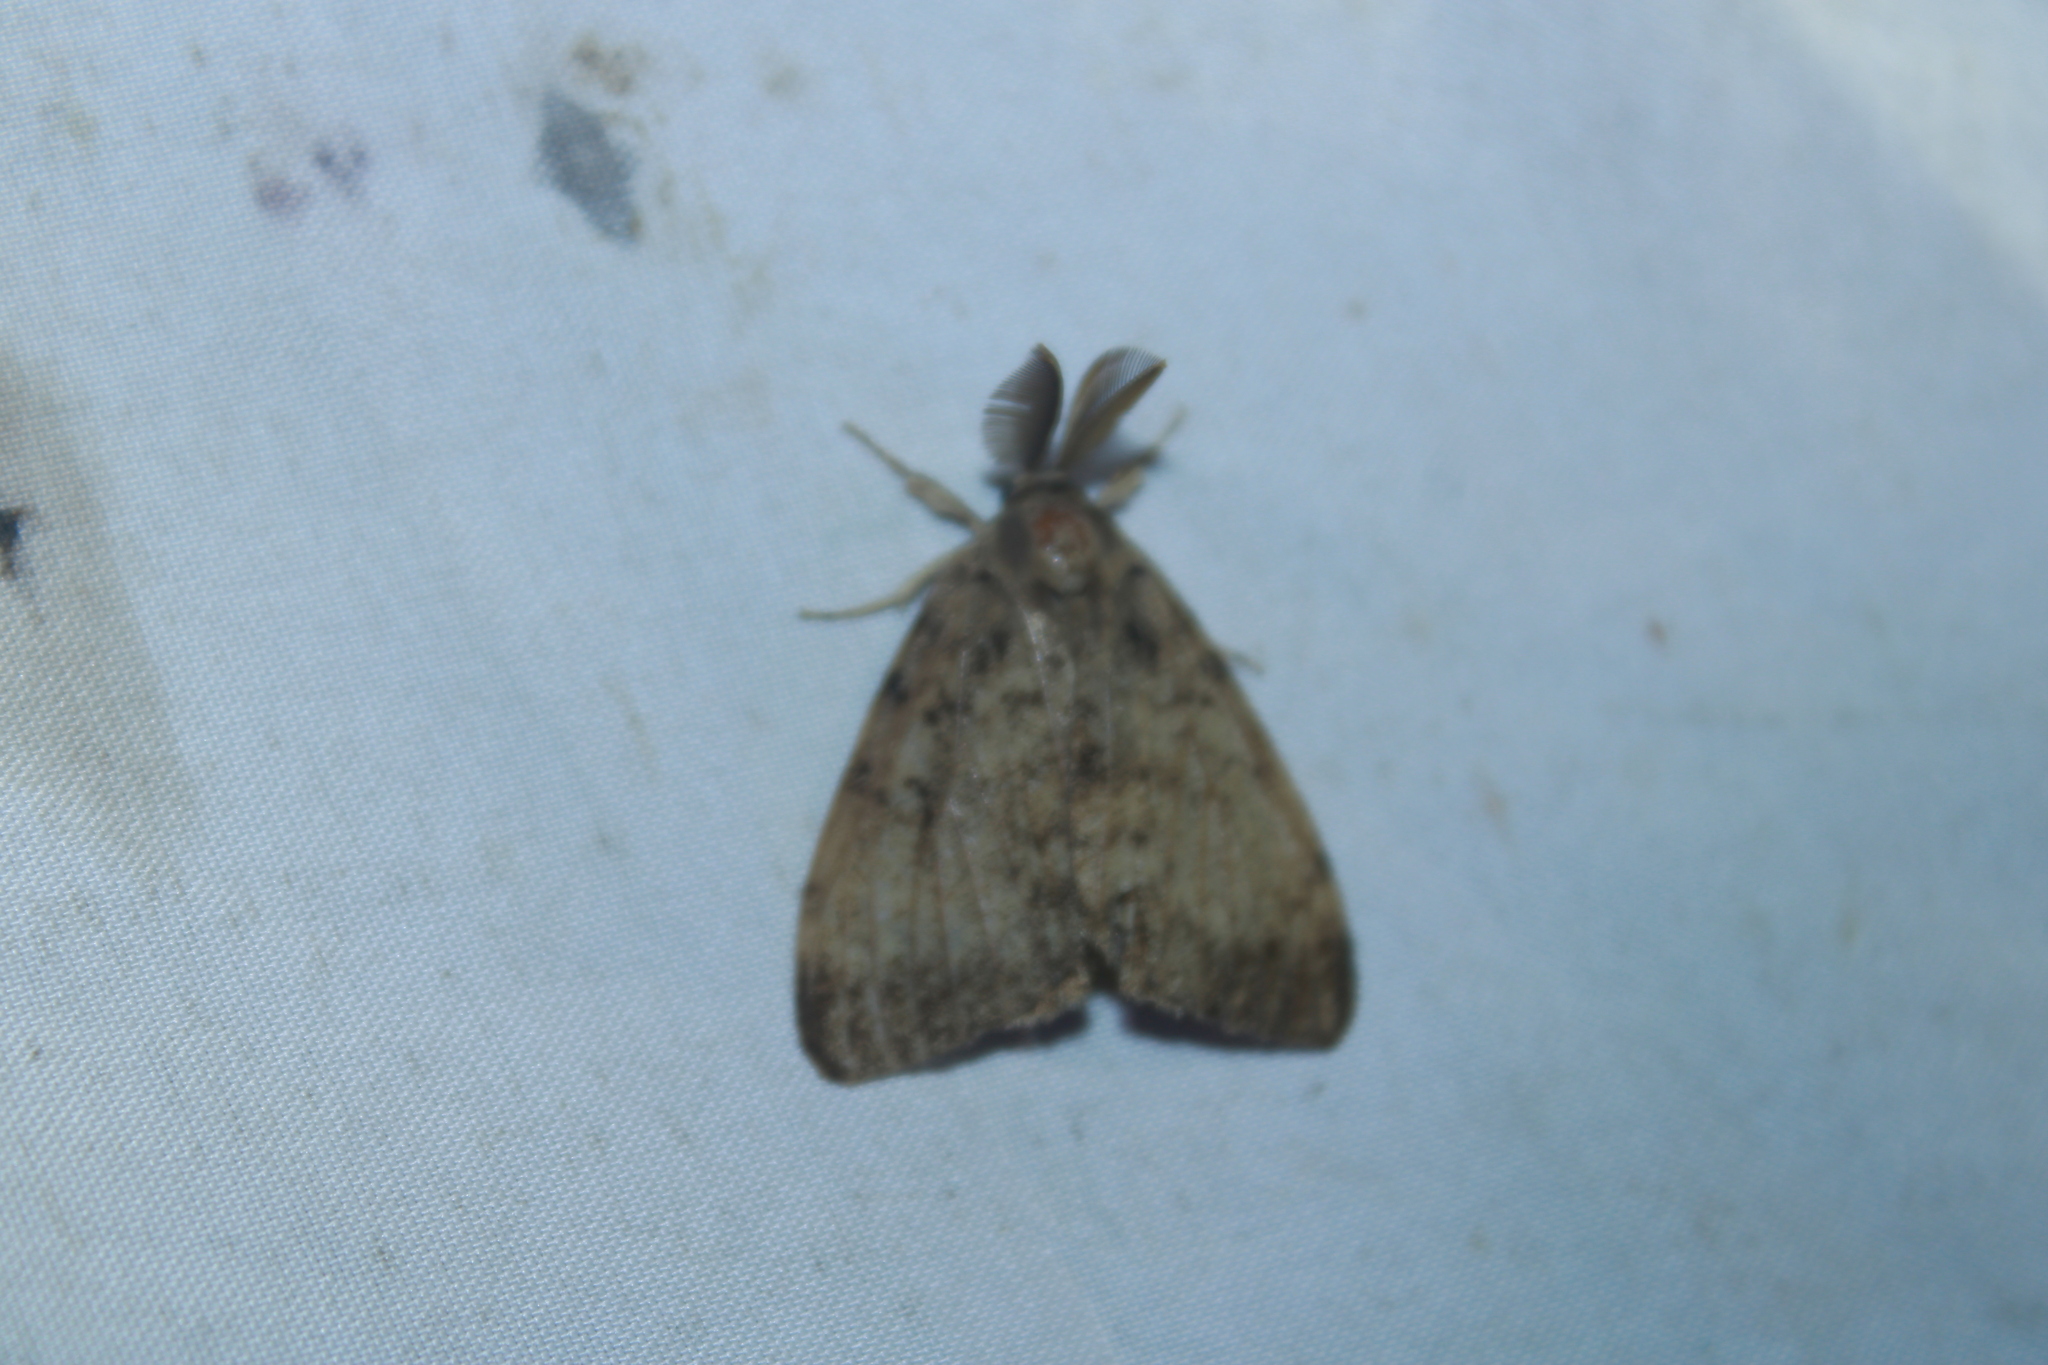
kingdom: Animalia
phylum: Arthropoda
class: Insecta
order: Lepidoptera
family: Erebidae
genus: Lymantria
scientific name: Lymantria dispar
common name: Gypsy moth
